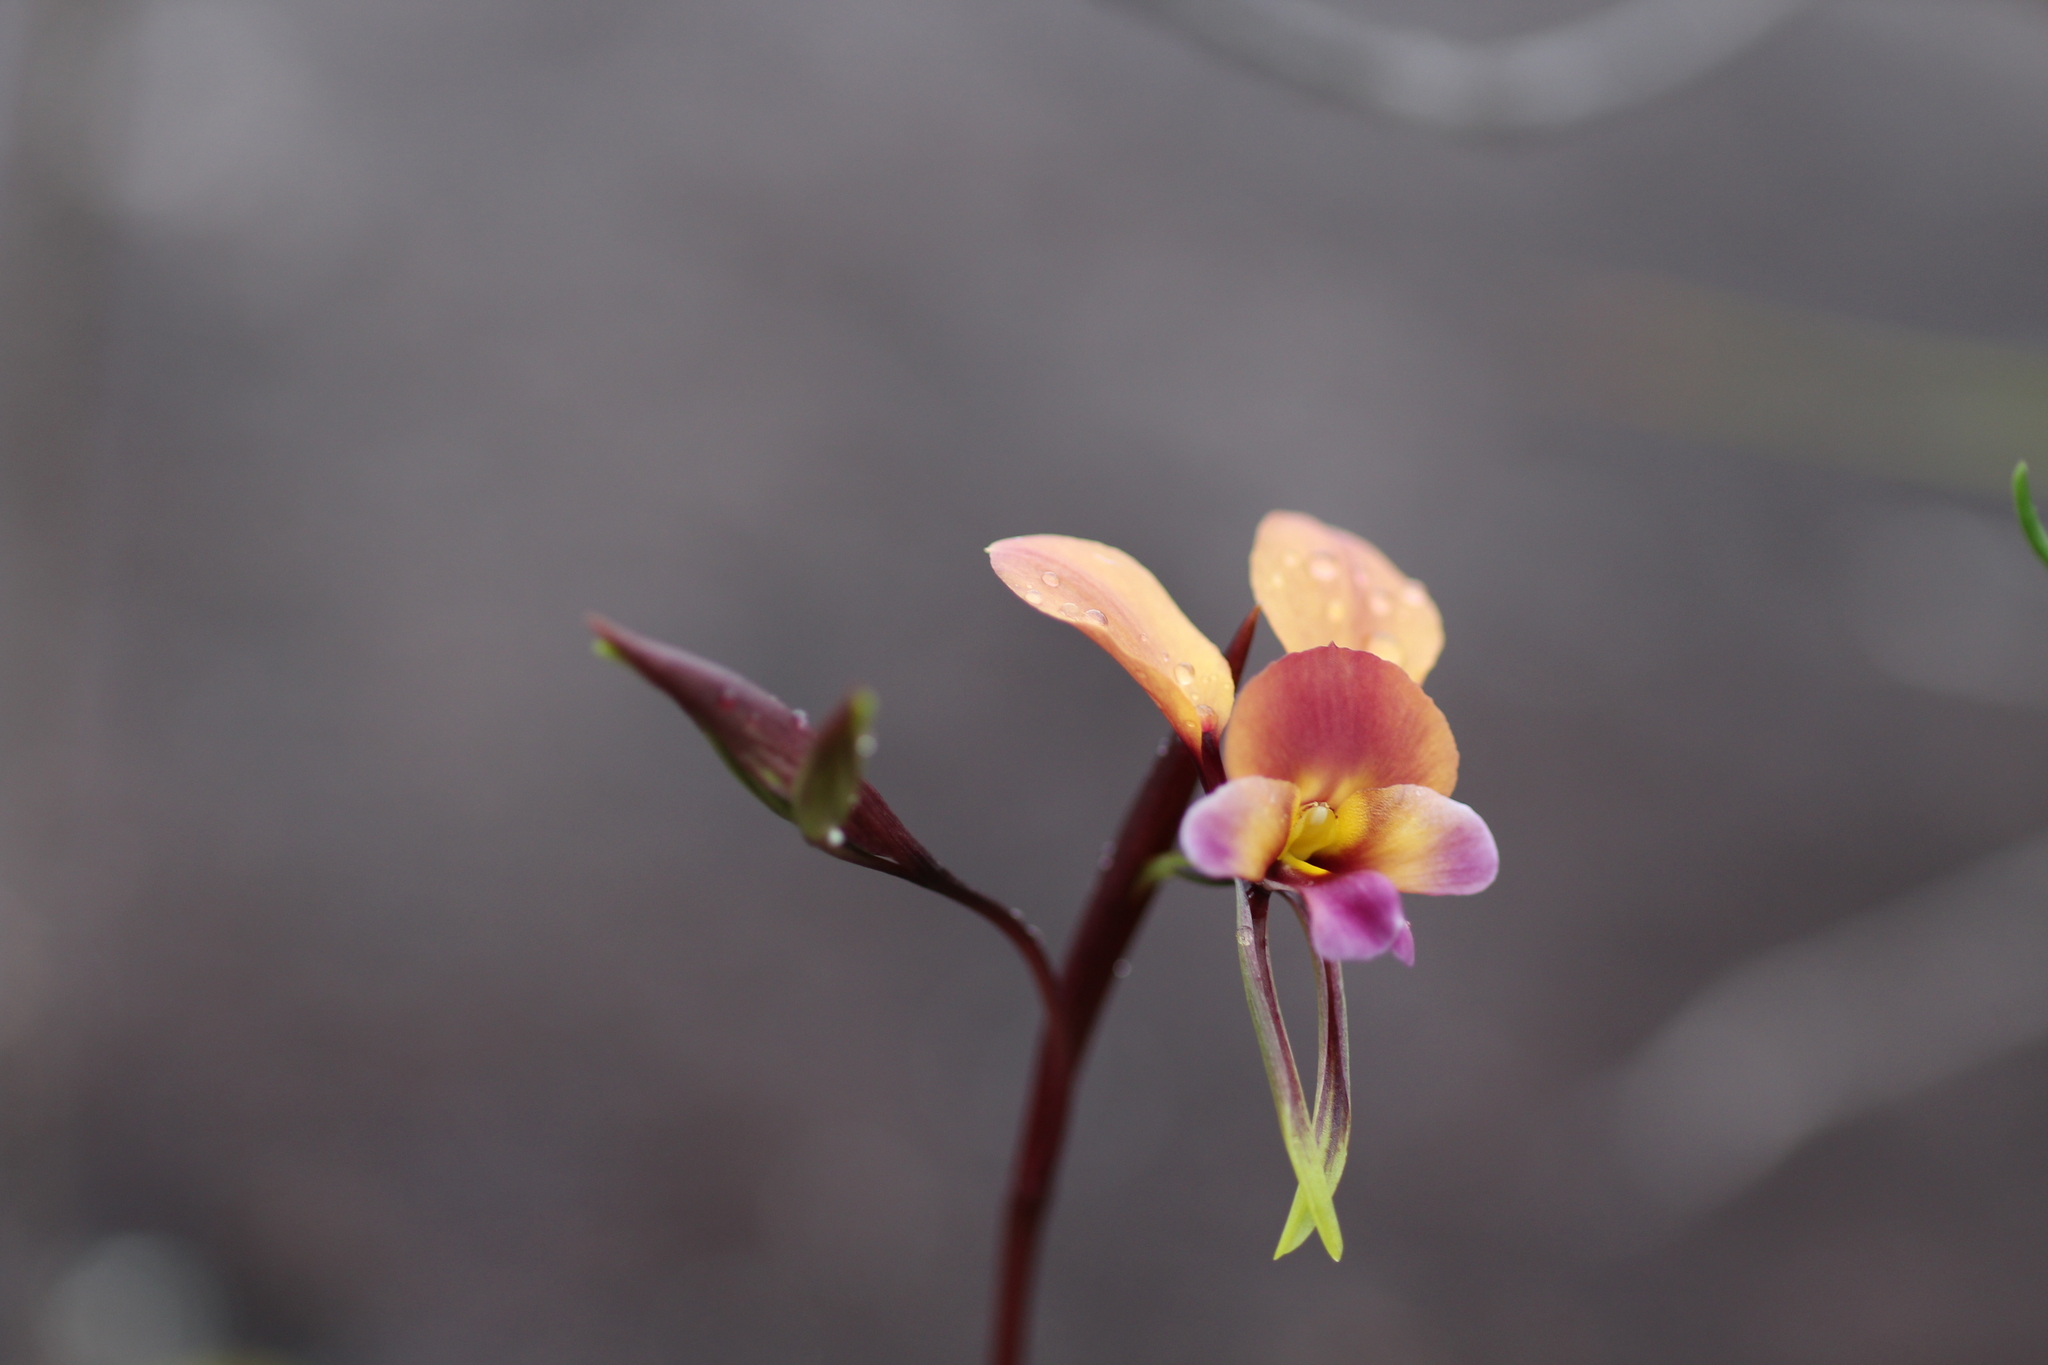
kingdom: Plantae
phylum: Tracheophyta
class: Liliopsida
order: Asparagales
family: Orchidaceae
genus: Diuris
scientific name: Diuris longifolia
